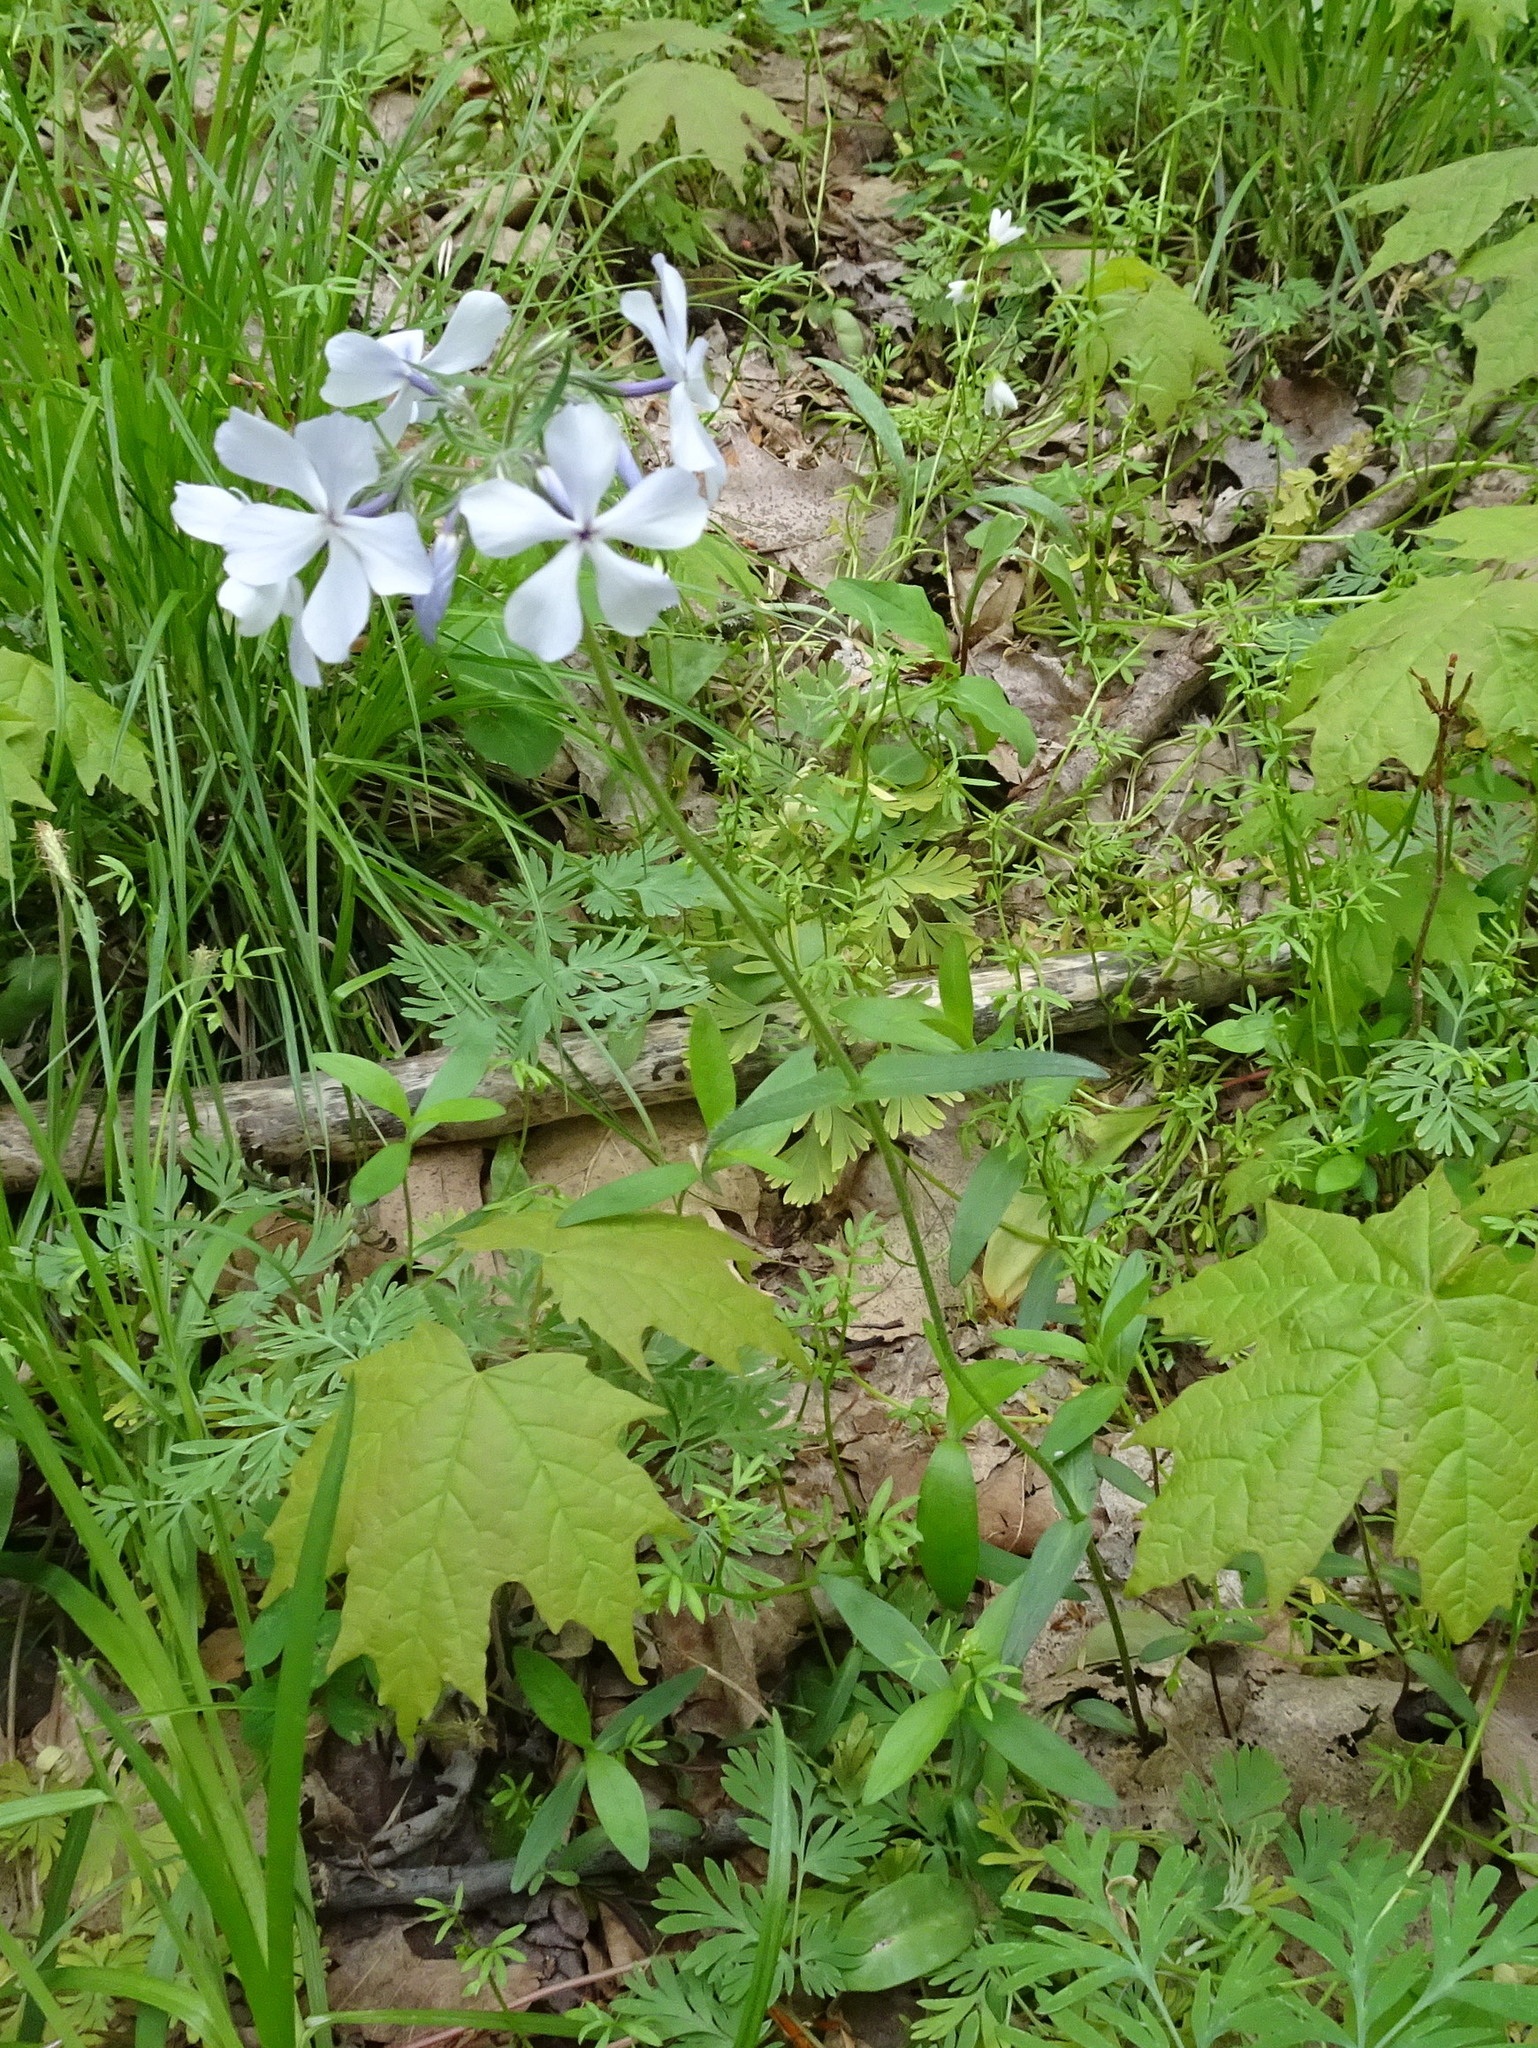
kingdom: Plantae
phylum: Tracheophyta
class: Magnoliopsida
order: Ericales
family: Polemoniaceae
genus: Phlox
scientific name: Phlox divaricata
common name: Blue phlox
